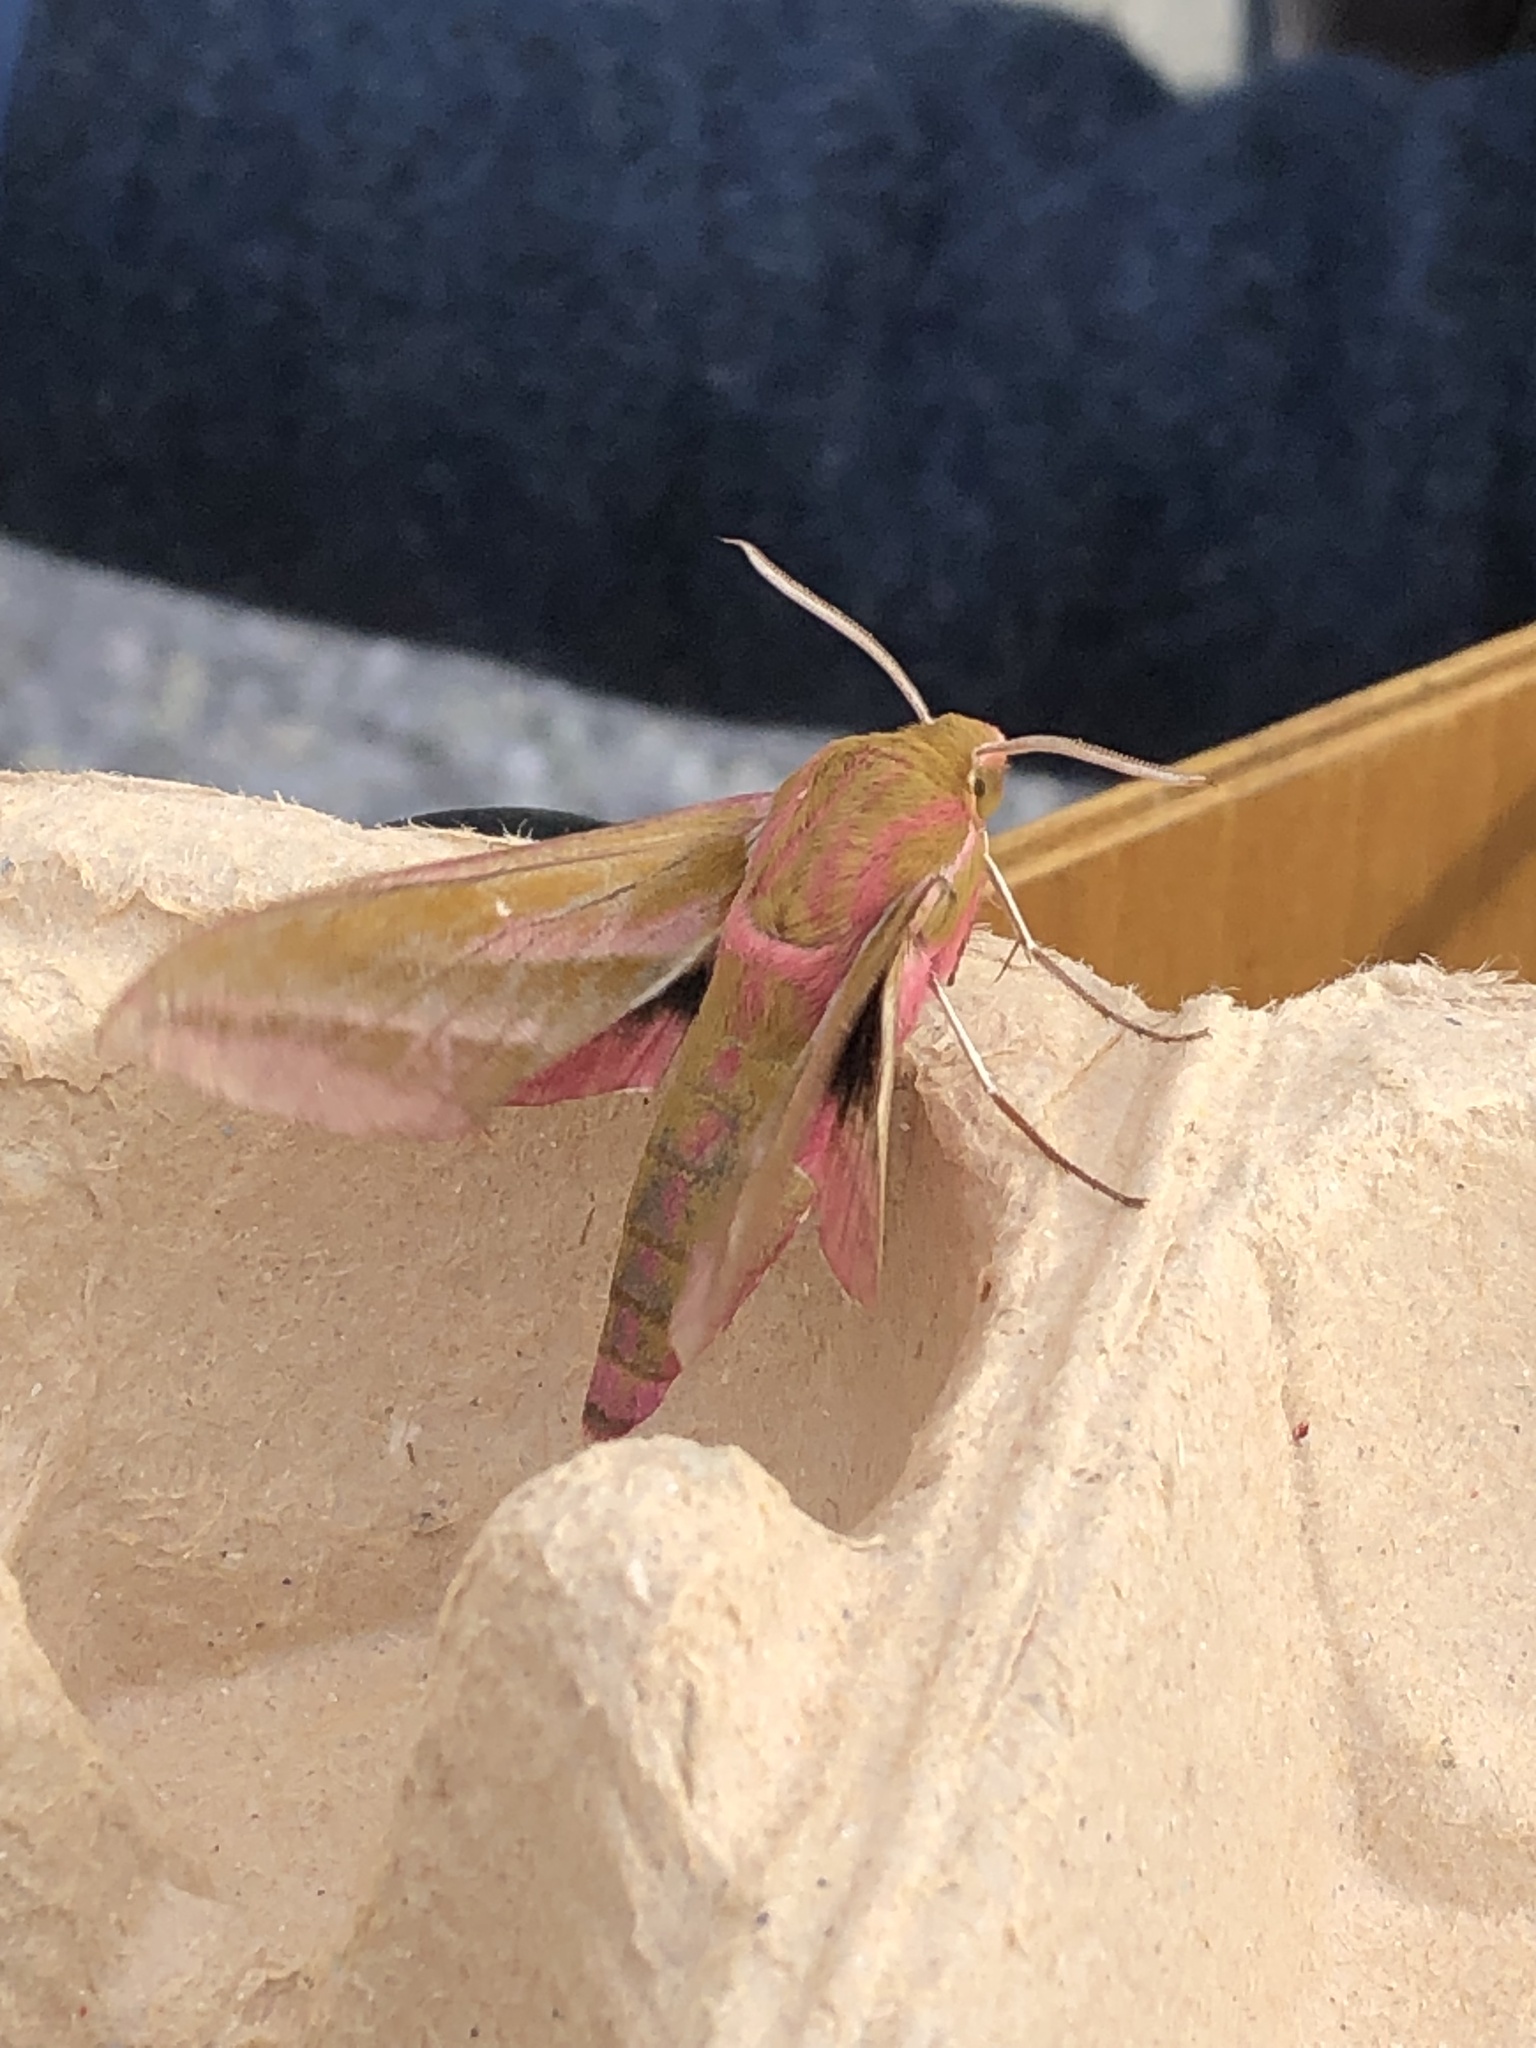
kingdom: Animalia
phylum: Arthropoda
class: Insecta
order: Lepidoptera
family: Sphingidae
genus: Deilephila
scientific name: Deilephila elpenor
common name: Elephant hawk-moth
